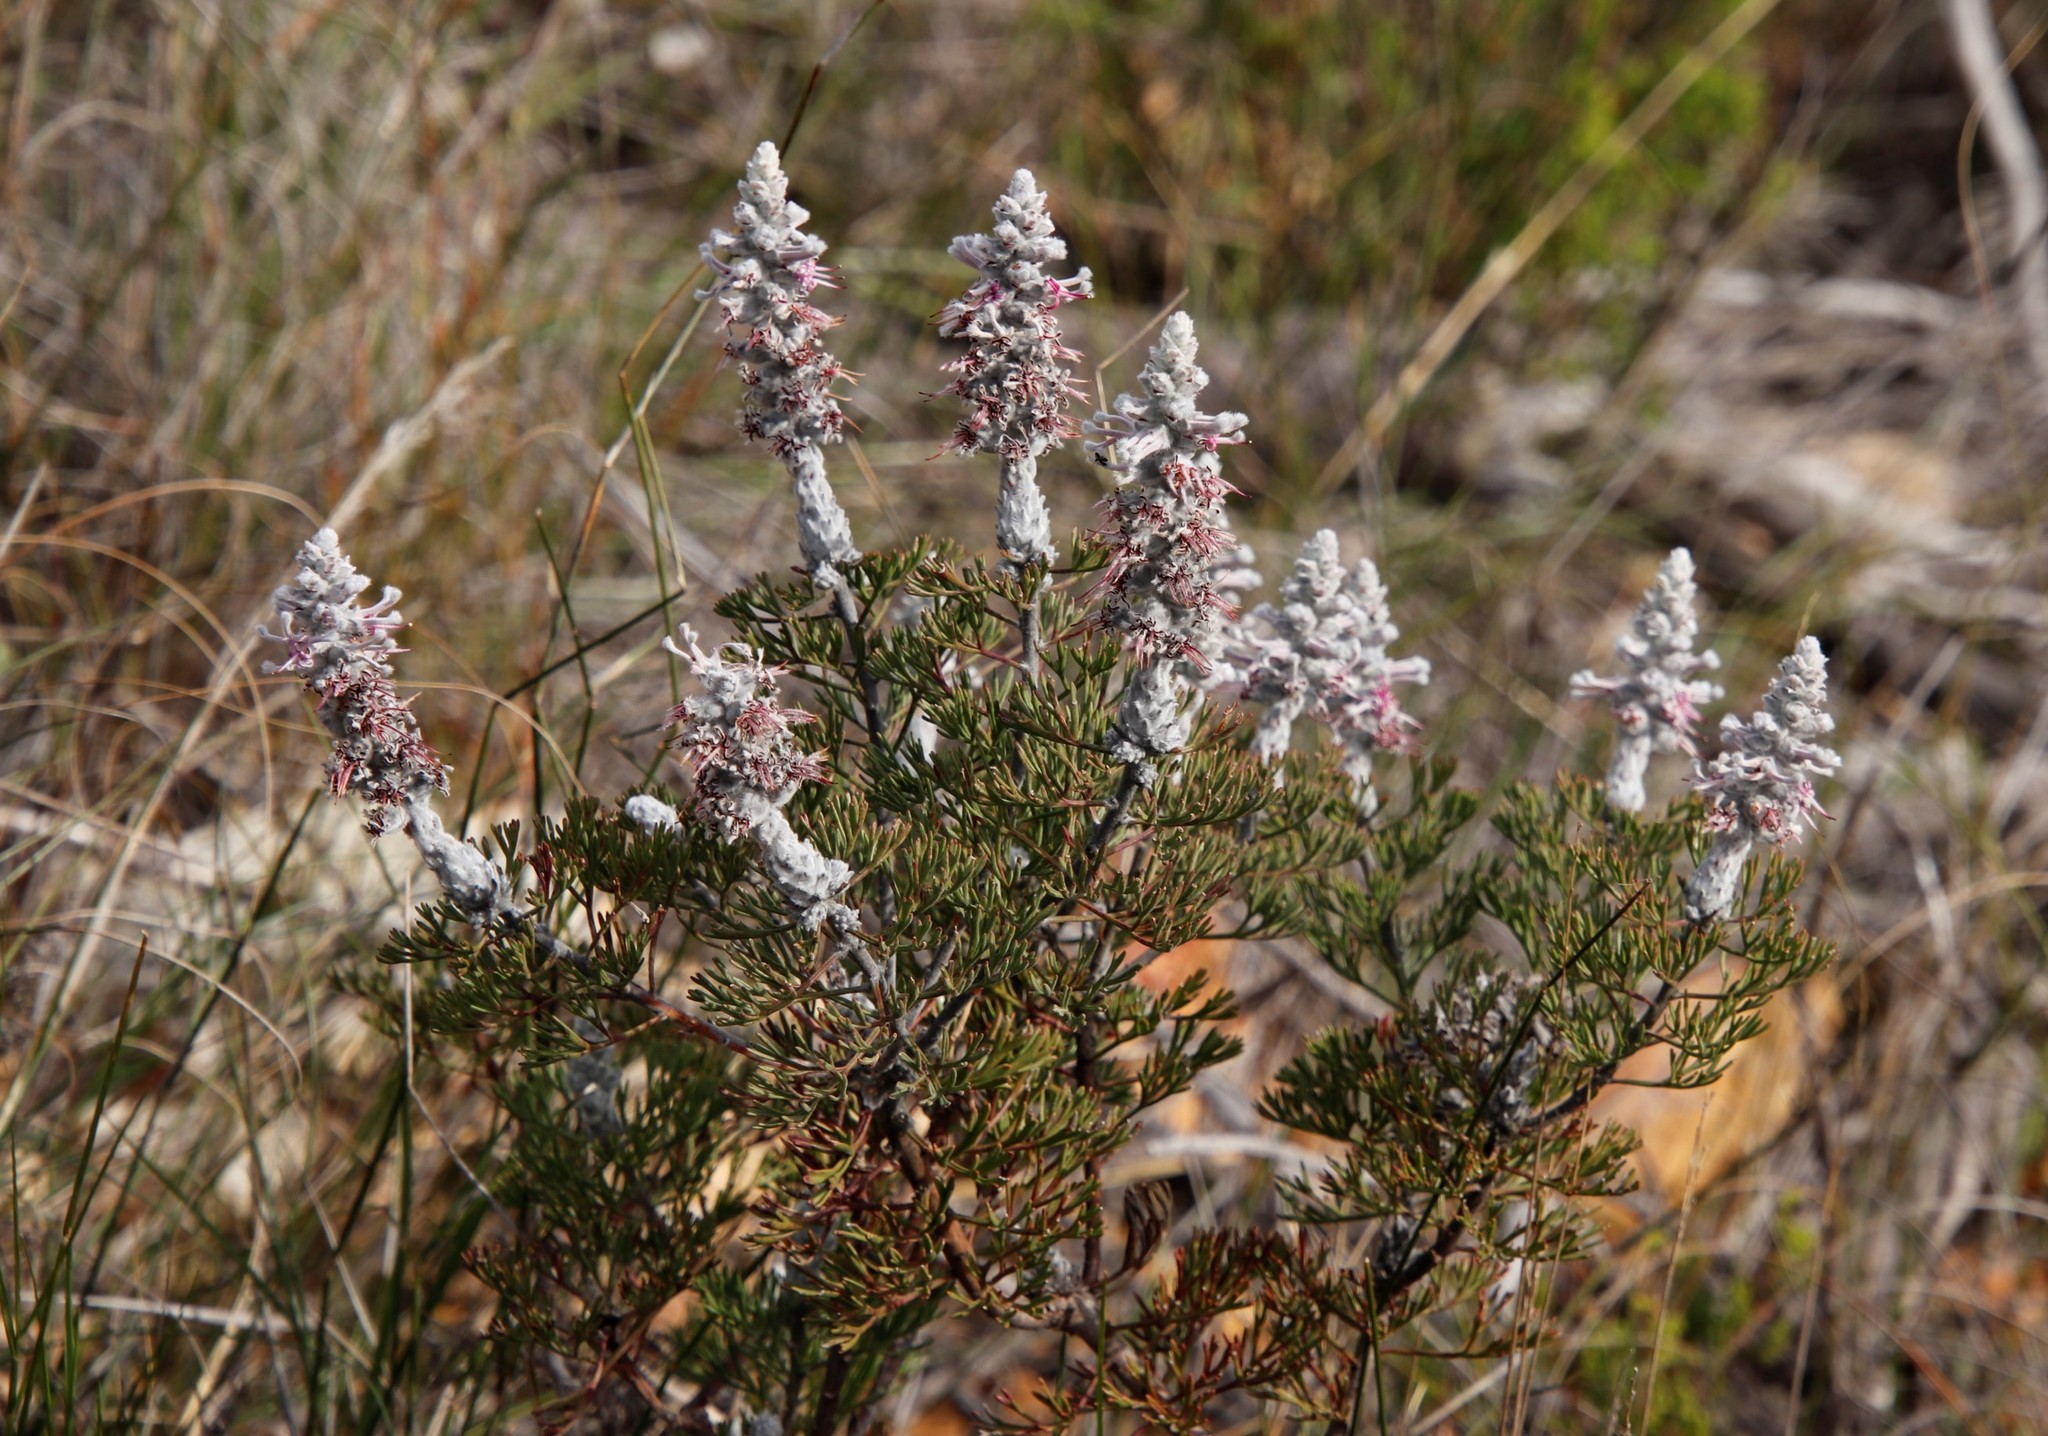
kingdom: Plantae
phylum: Tracheophyta
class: Magnoliopsida
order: Proteales
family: Proteaceae
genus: Paranomus
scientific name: Paranomus bolusii
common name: Overberg sceptre
